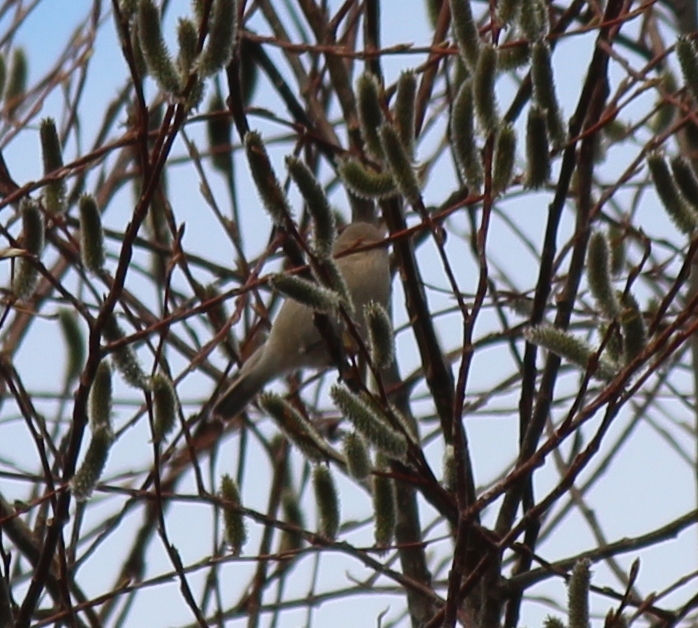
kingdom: Animalia
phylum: Chordata
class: Aves
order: Passeriformes
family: Phylloscopidae
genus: Phylloscopus
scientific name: Phylloscopus collybita
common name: Common chiffchaff
